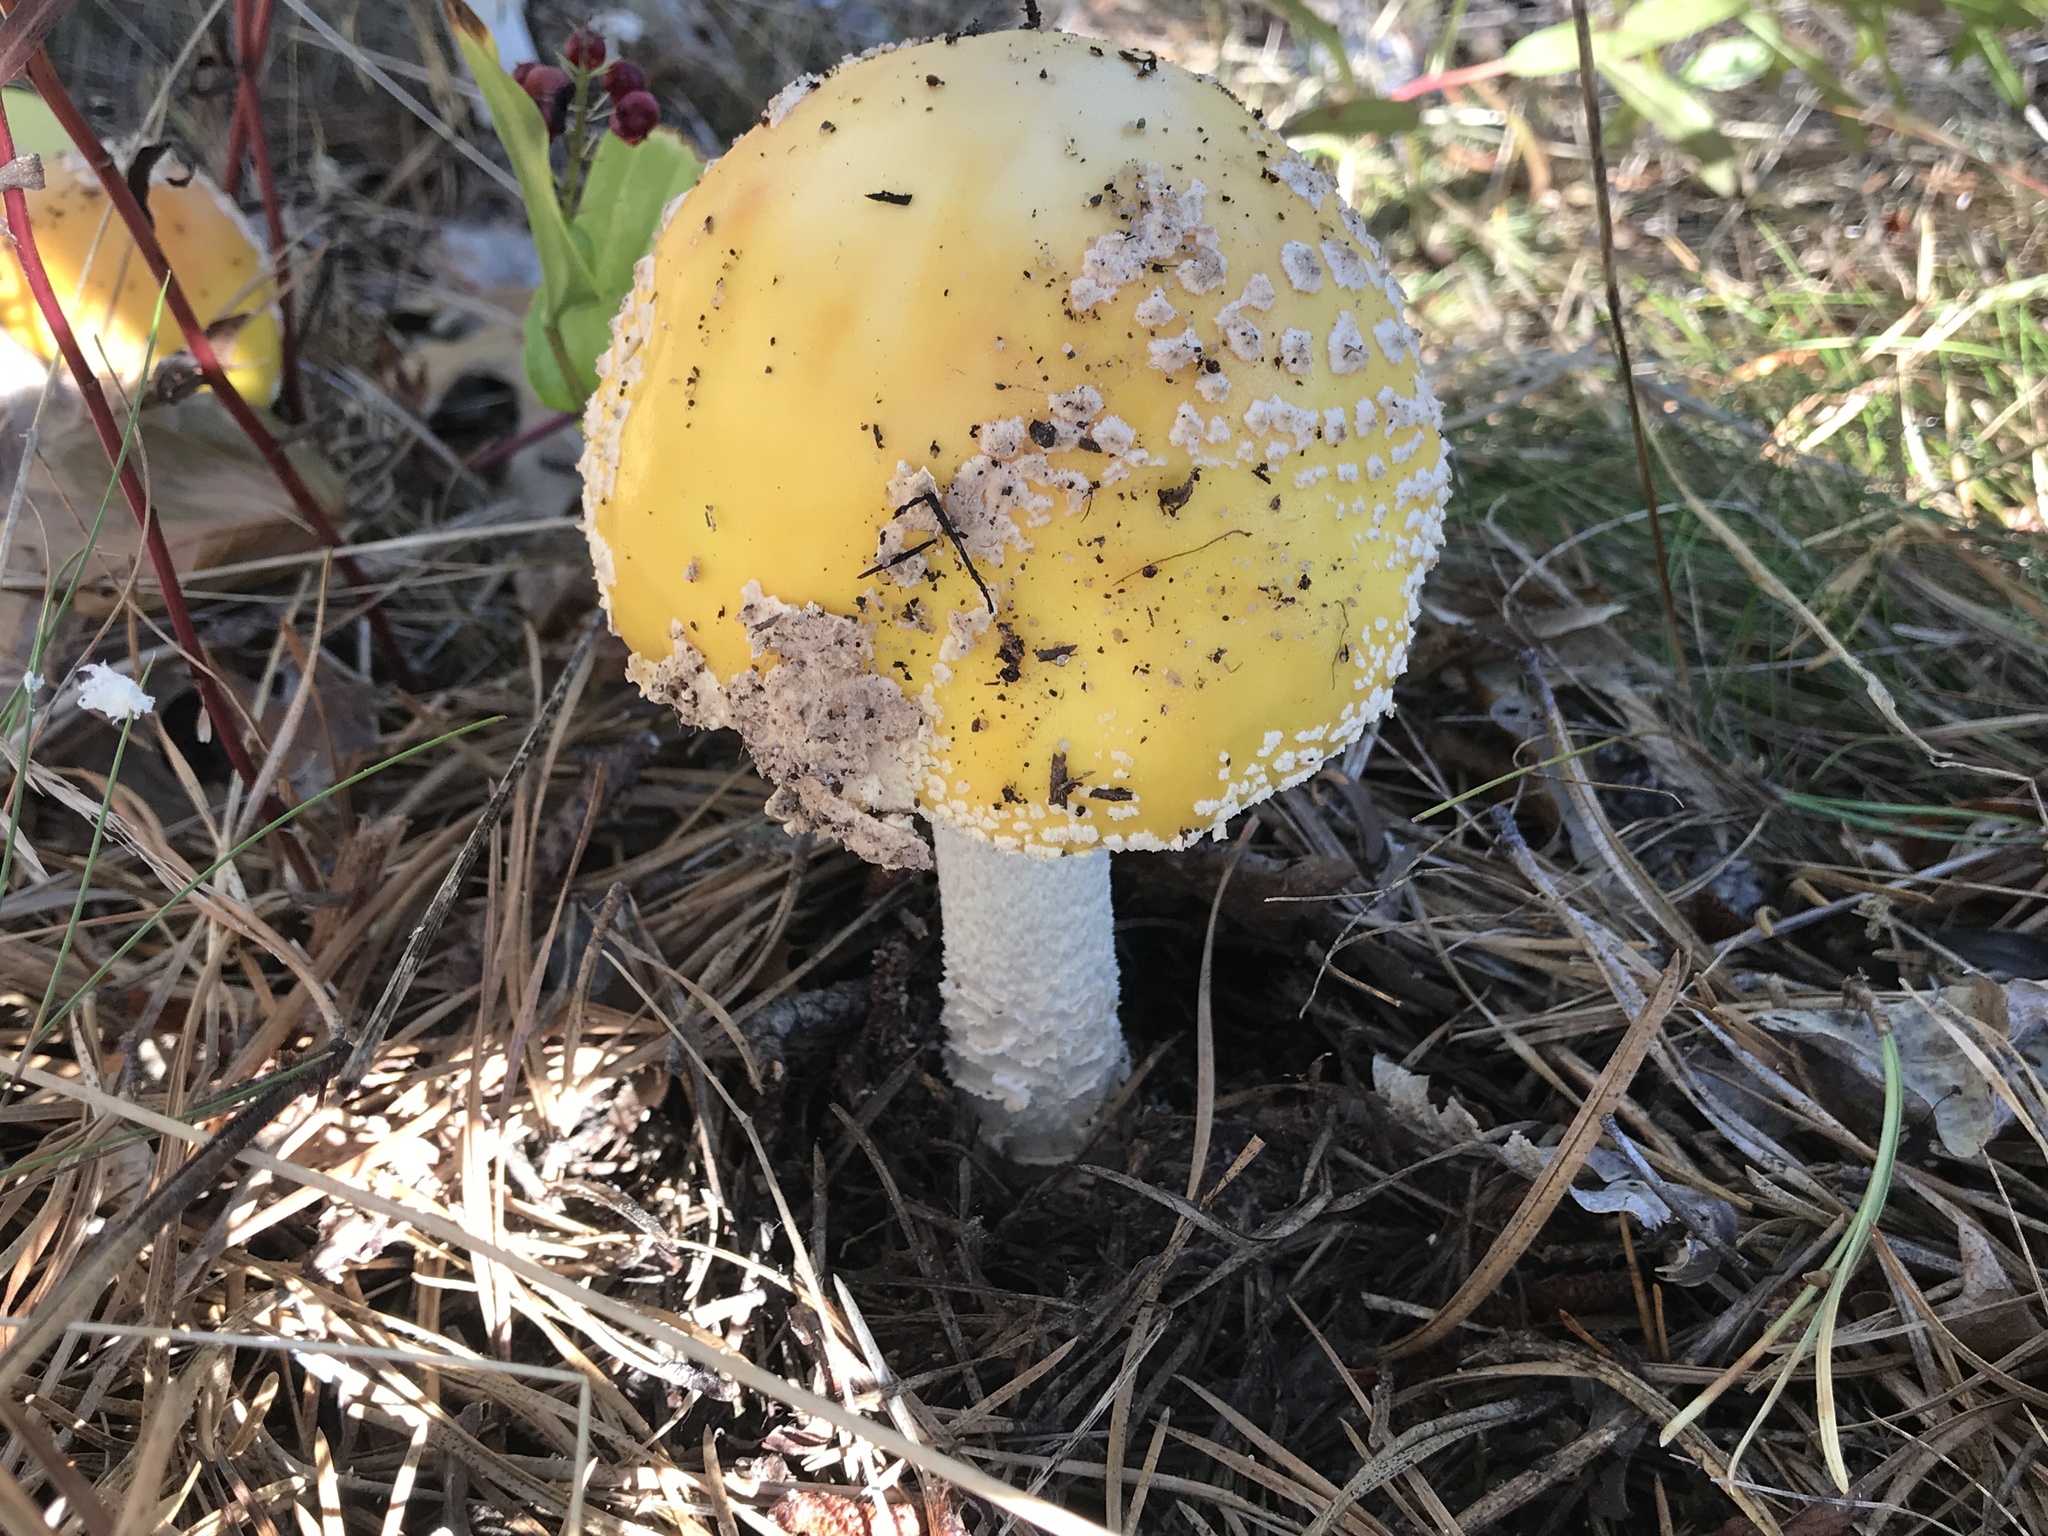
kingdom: Fungi
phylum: Basidiomycota
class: Agaricomycetes
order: Agaricales
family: Amanitaceae
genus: Amanita
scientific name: Amanita muscaria
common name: Fly agaric
